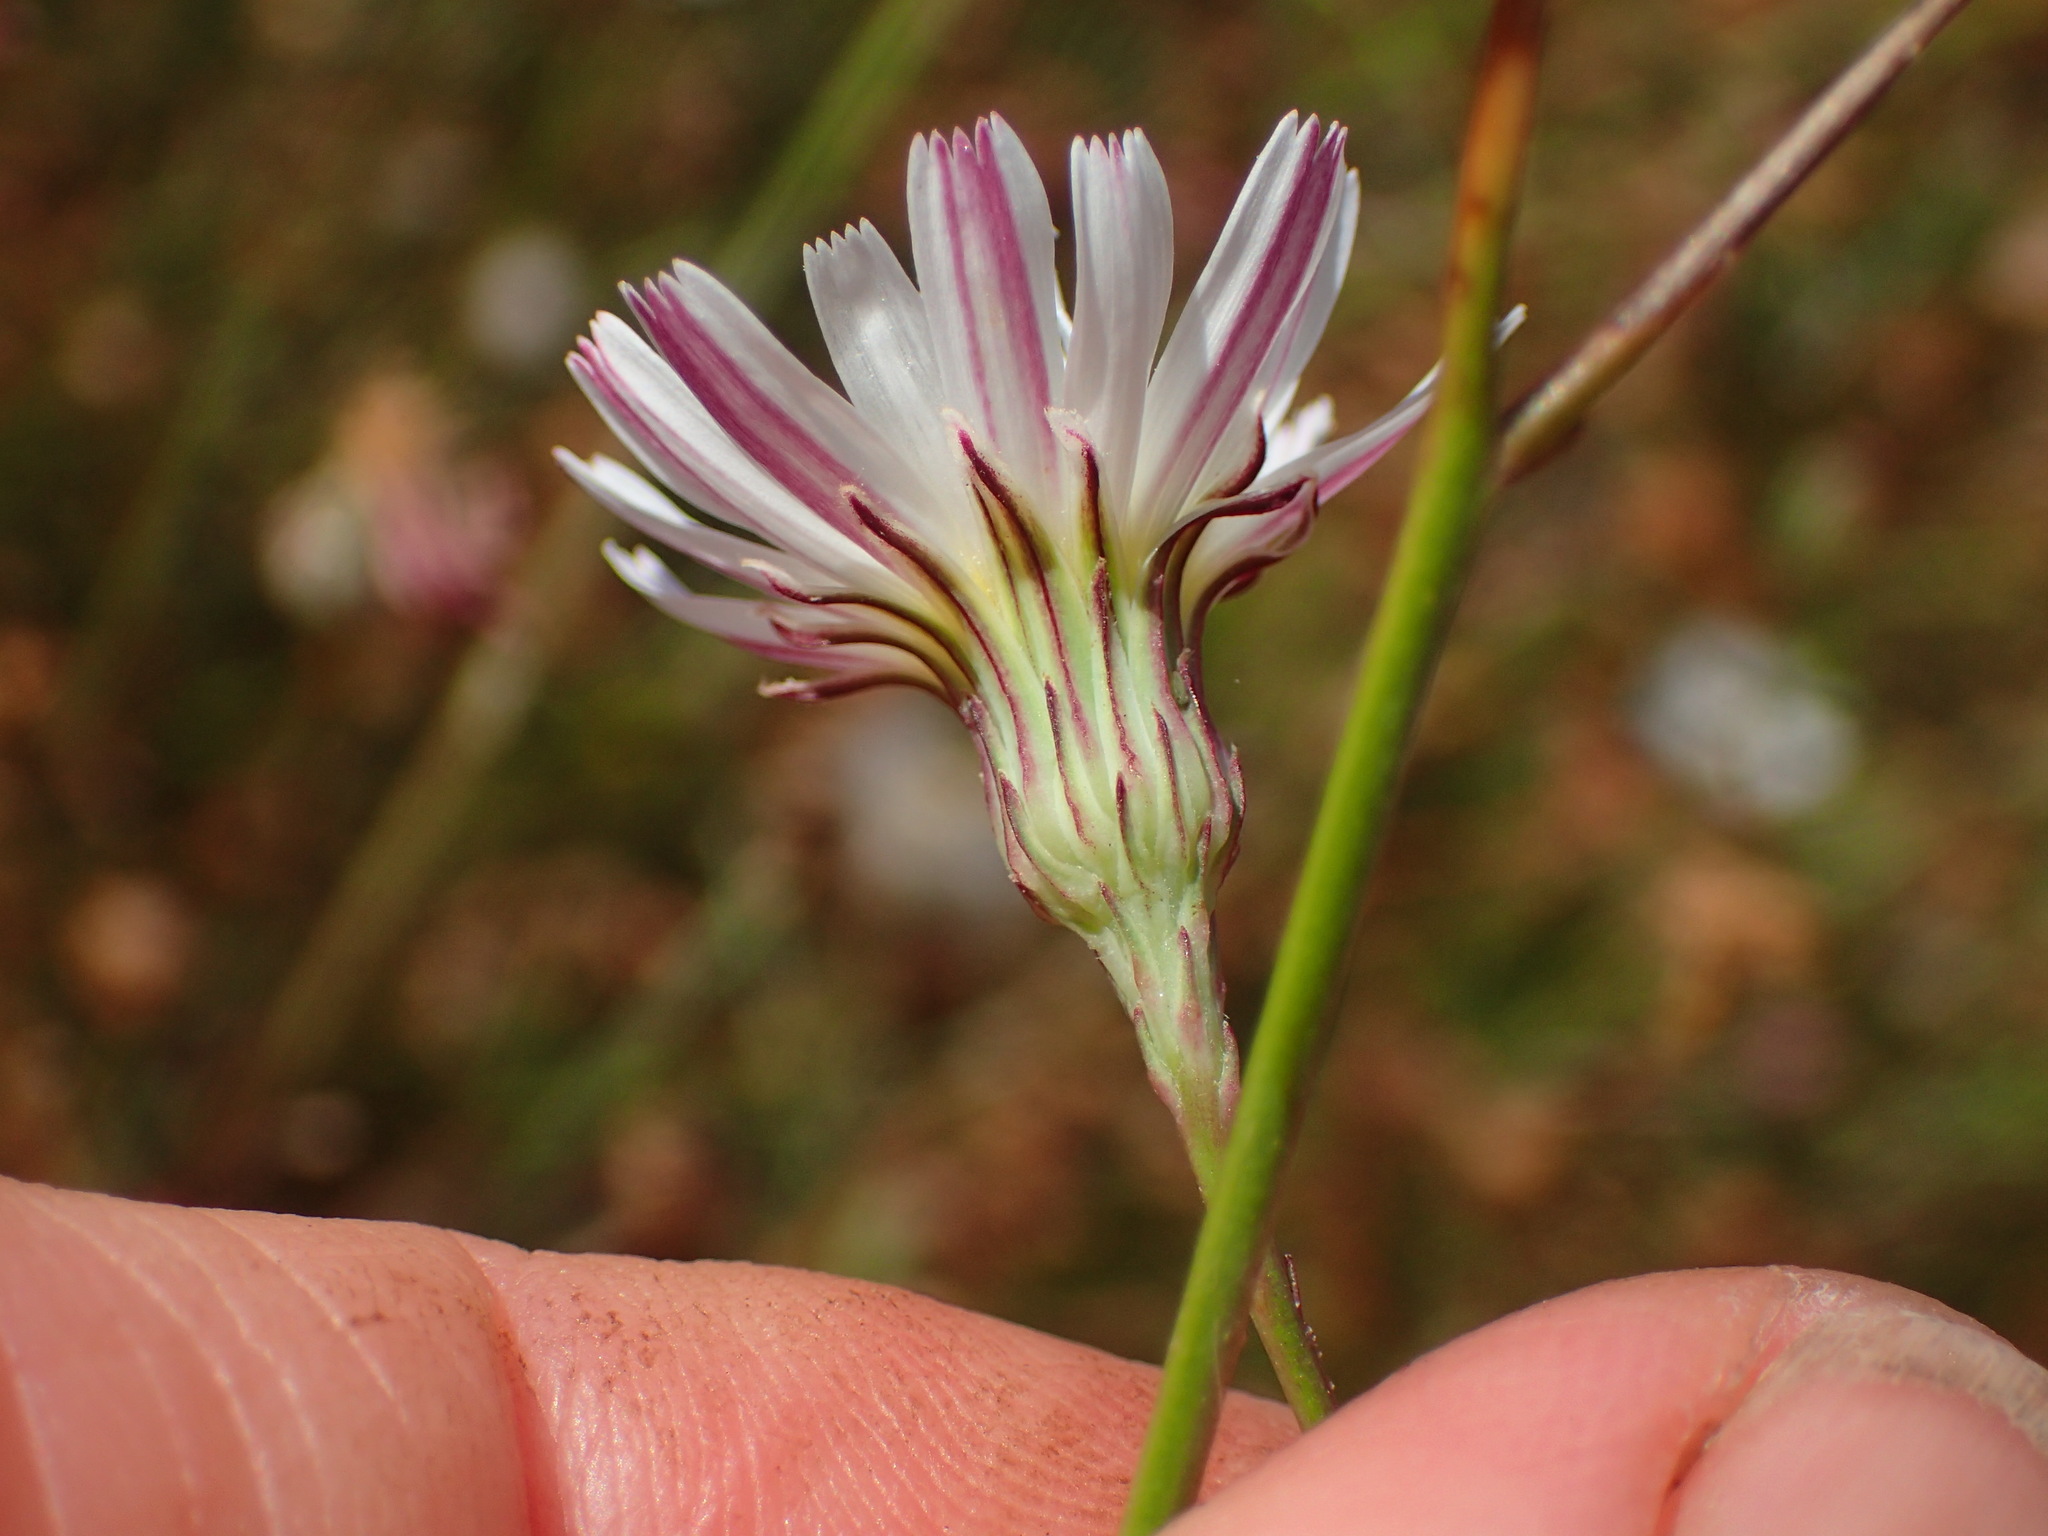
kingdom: Plantae
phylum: Tracheophyta
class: Magnoliopsida
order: Asterales
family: Asteraceae
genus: Malacothrix
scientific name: Malacothrix saxatilis
